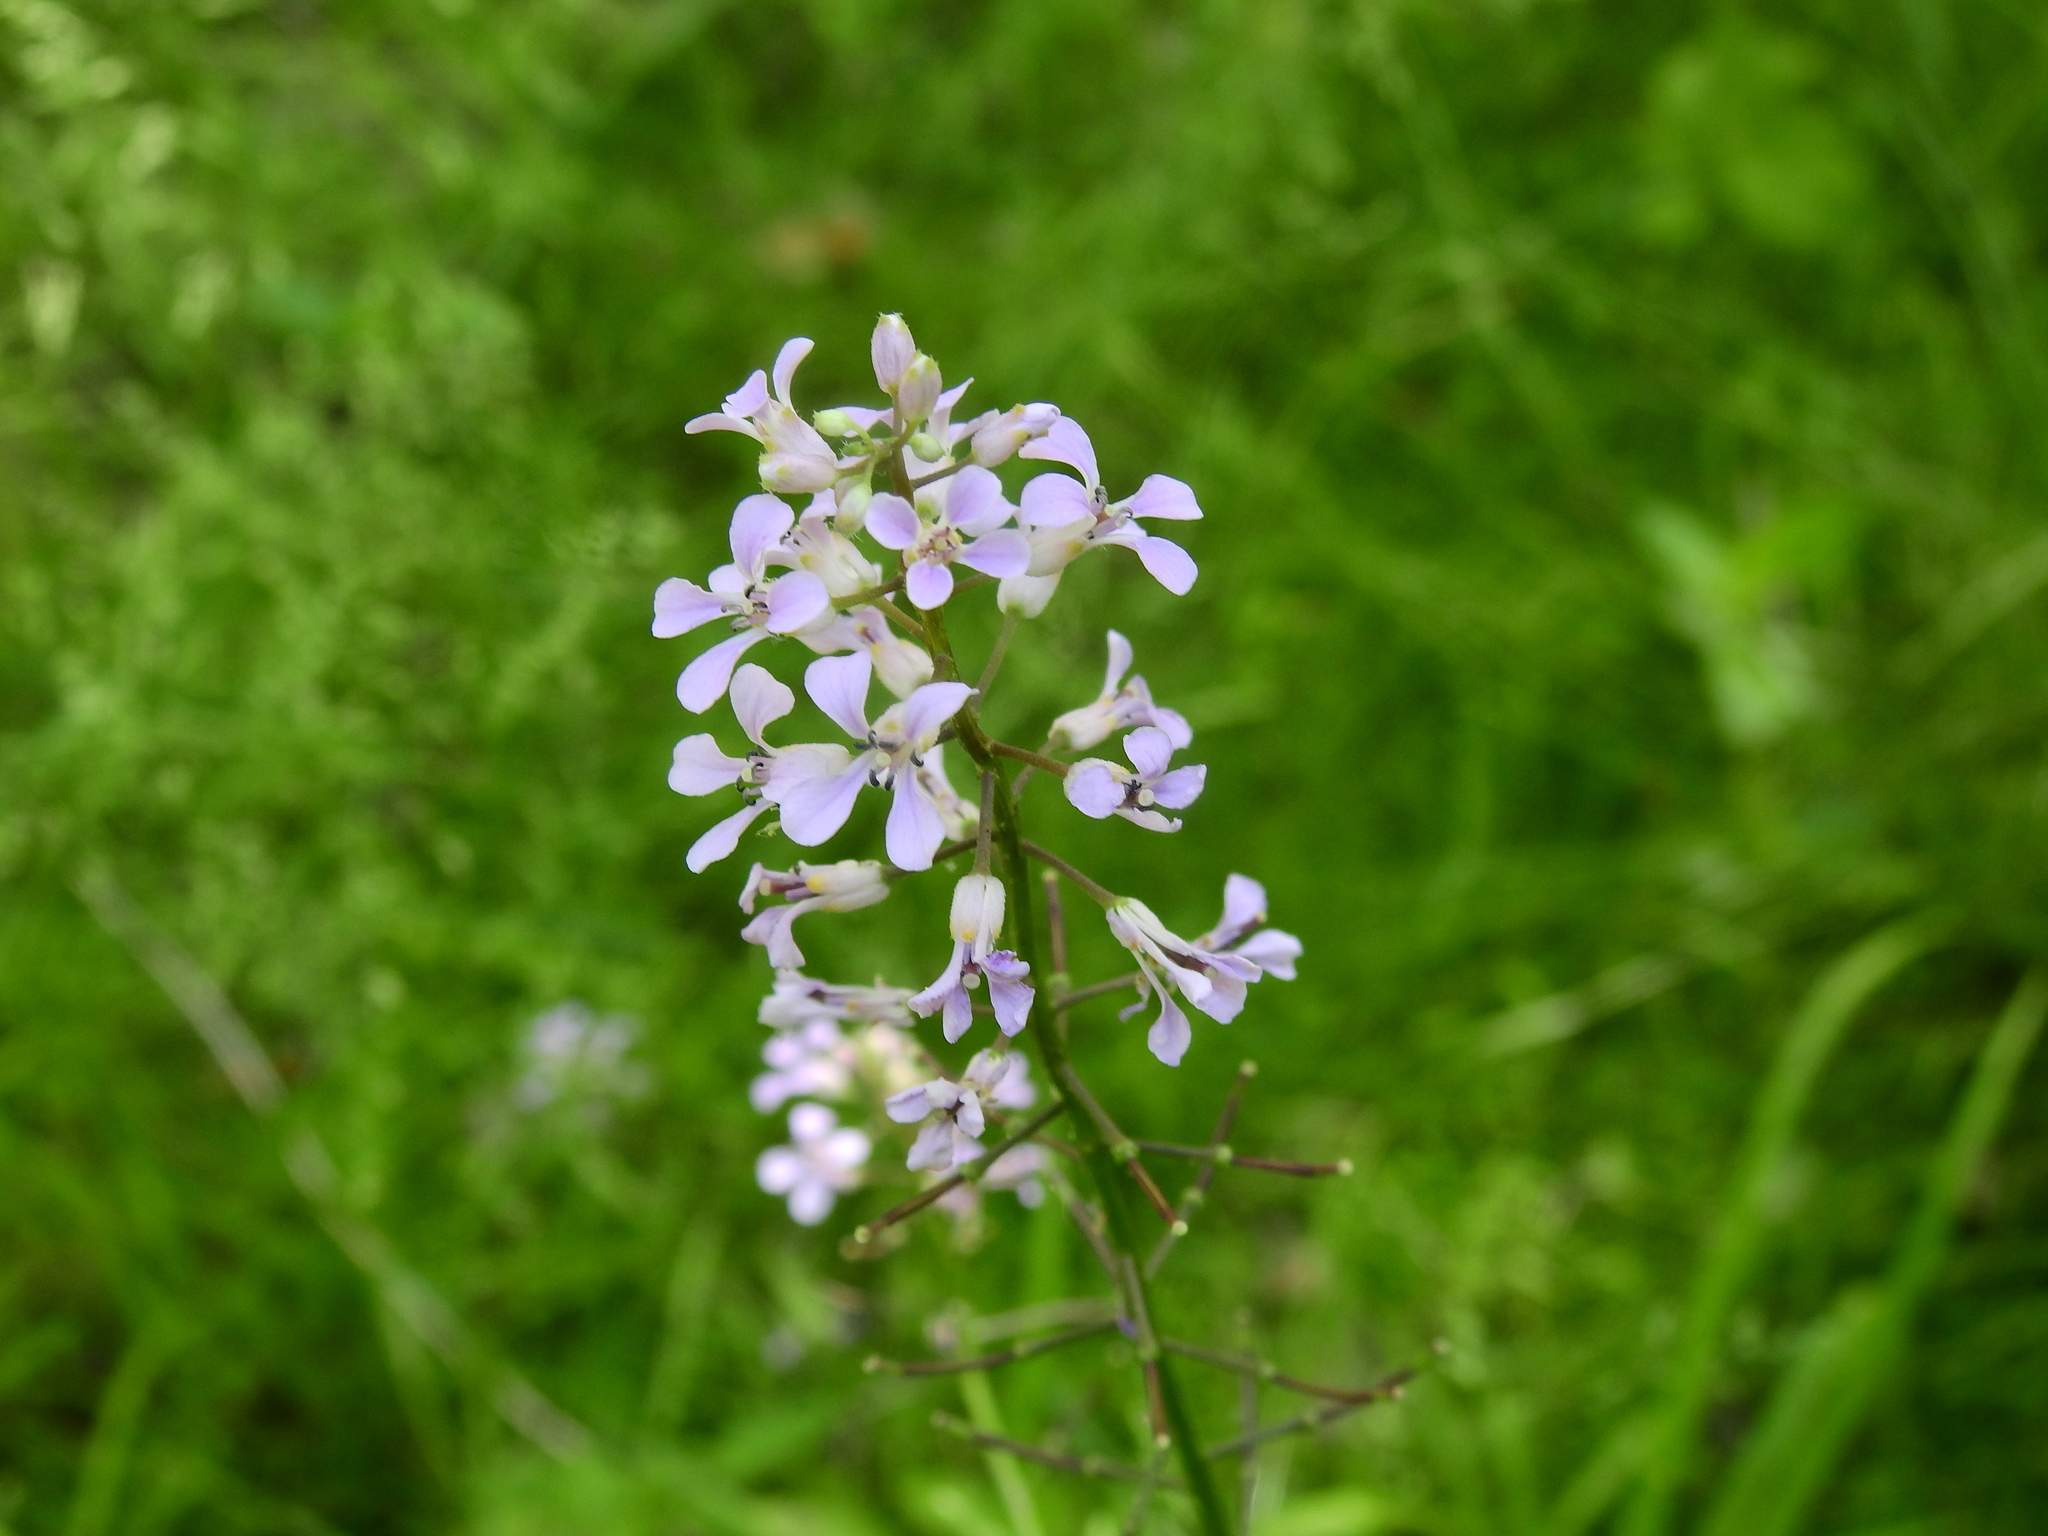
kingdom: Plantae
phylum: Tracheophyta
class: Magnoliopsida
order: Brassicales
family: Brassicaceae
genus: Iodanthus
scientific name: Iodanthus pinnatifidus
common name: Violet rocket
